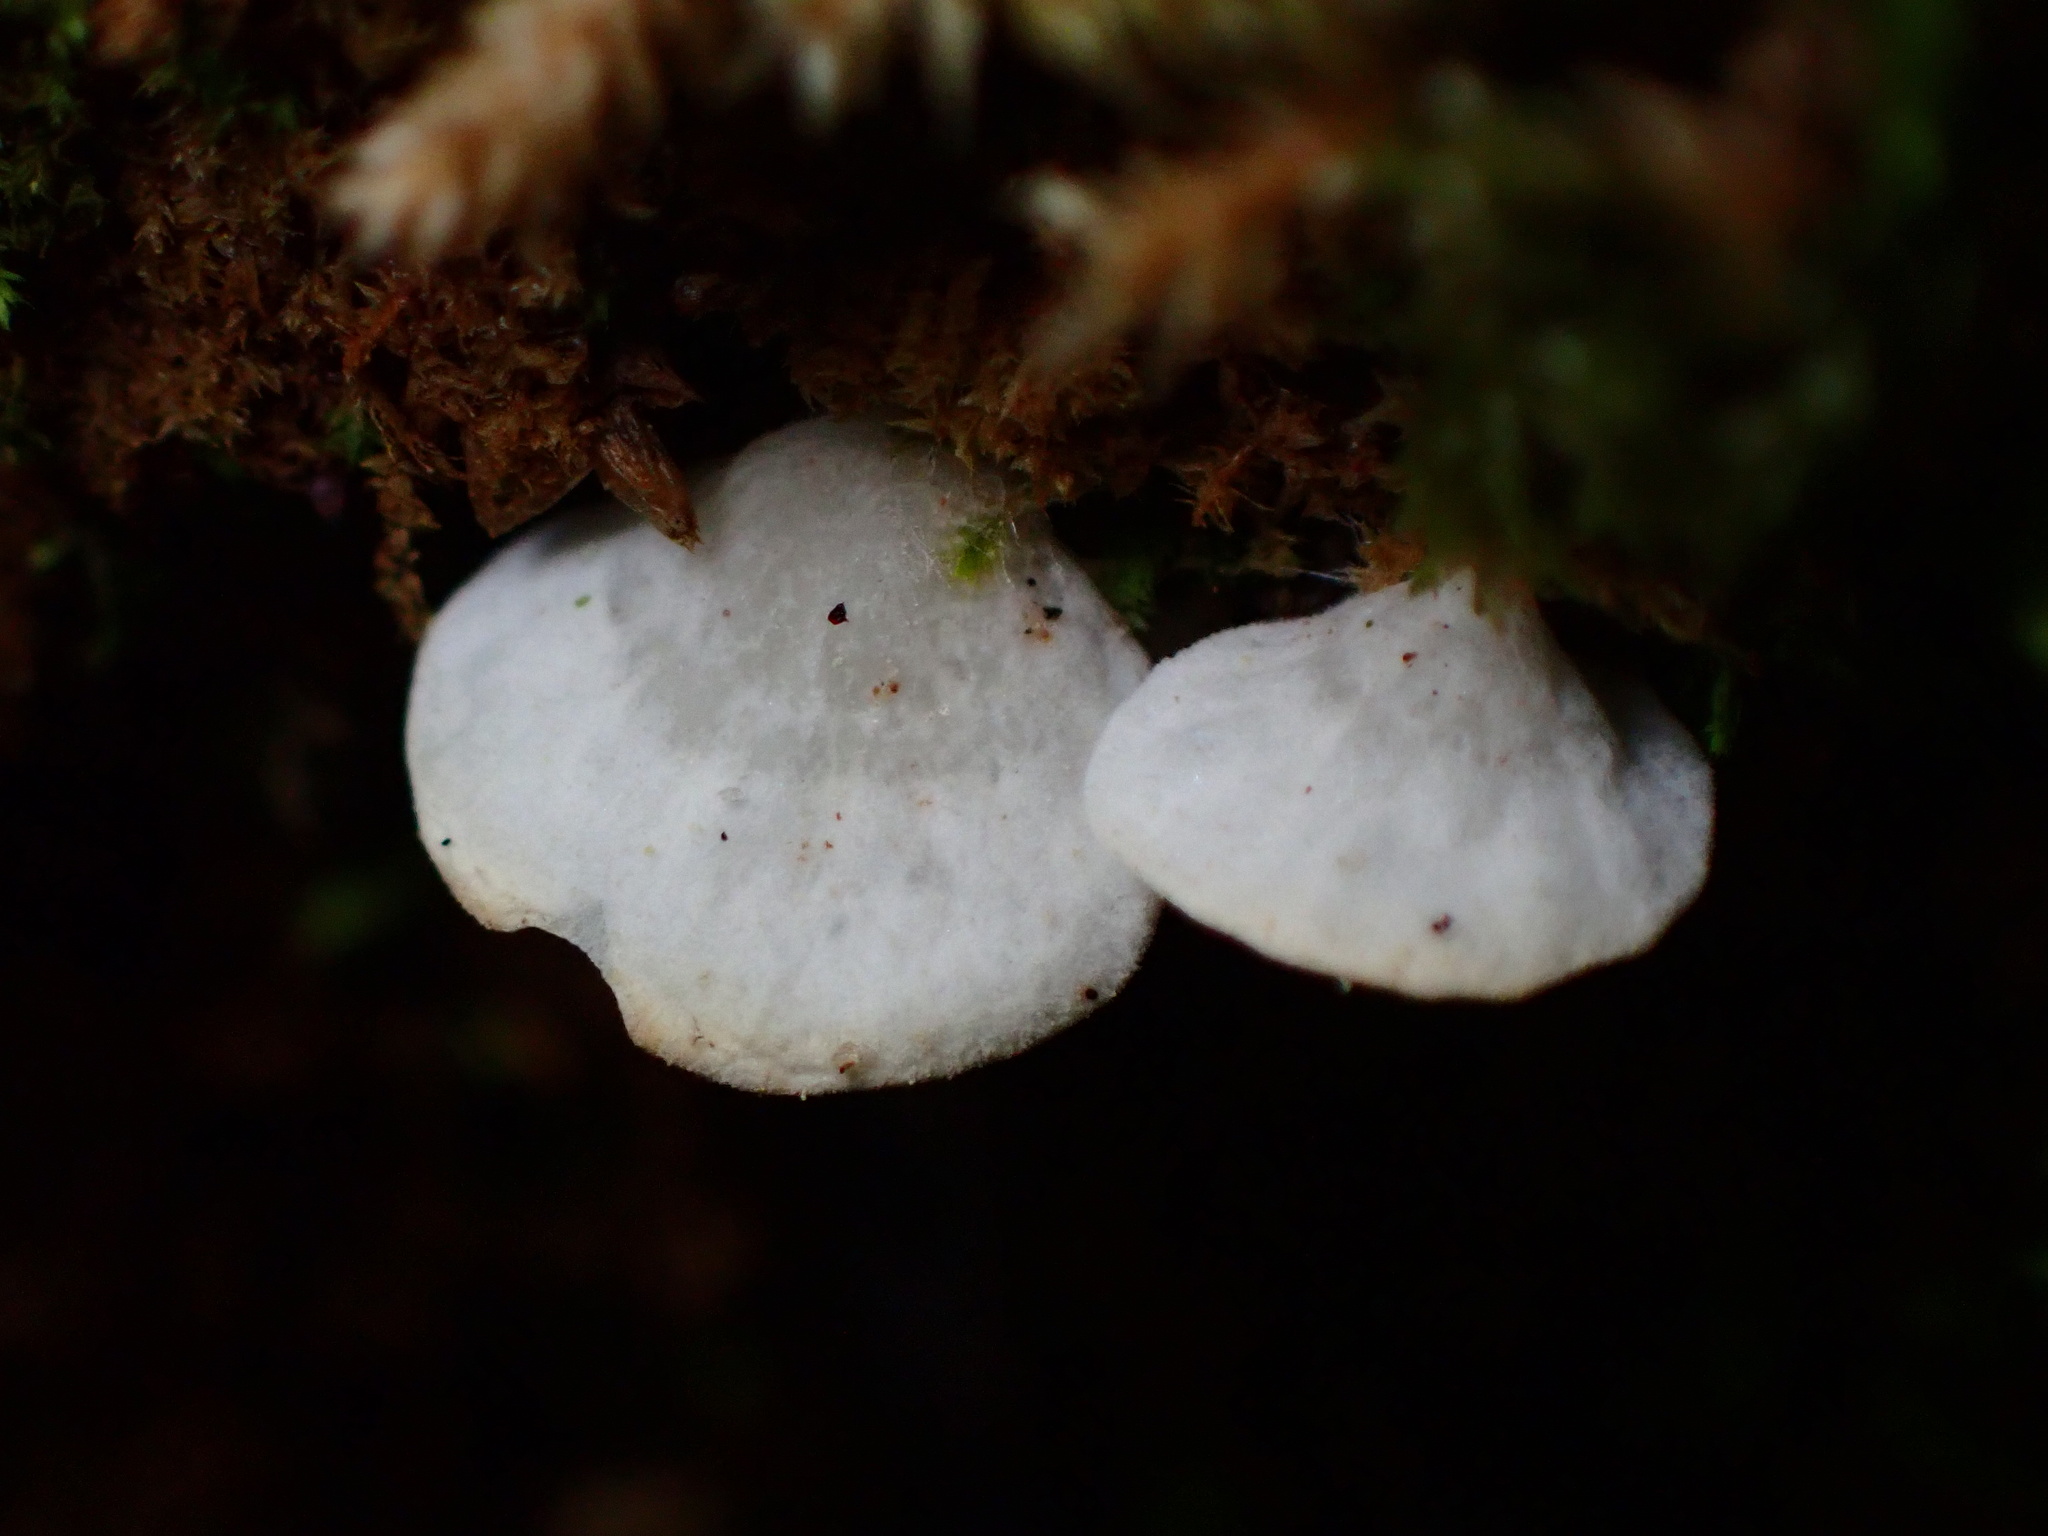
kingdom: Fungi
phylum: Basidiomycota
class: Agaricomycetes
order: Agaricales
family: Tricholomataceae
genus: Rimbachia
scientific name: Rimbachia bryophila
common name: Veined mossear
